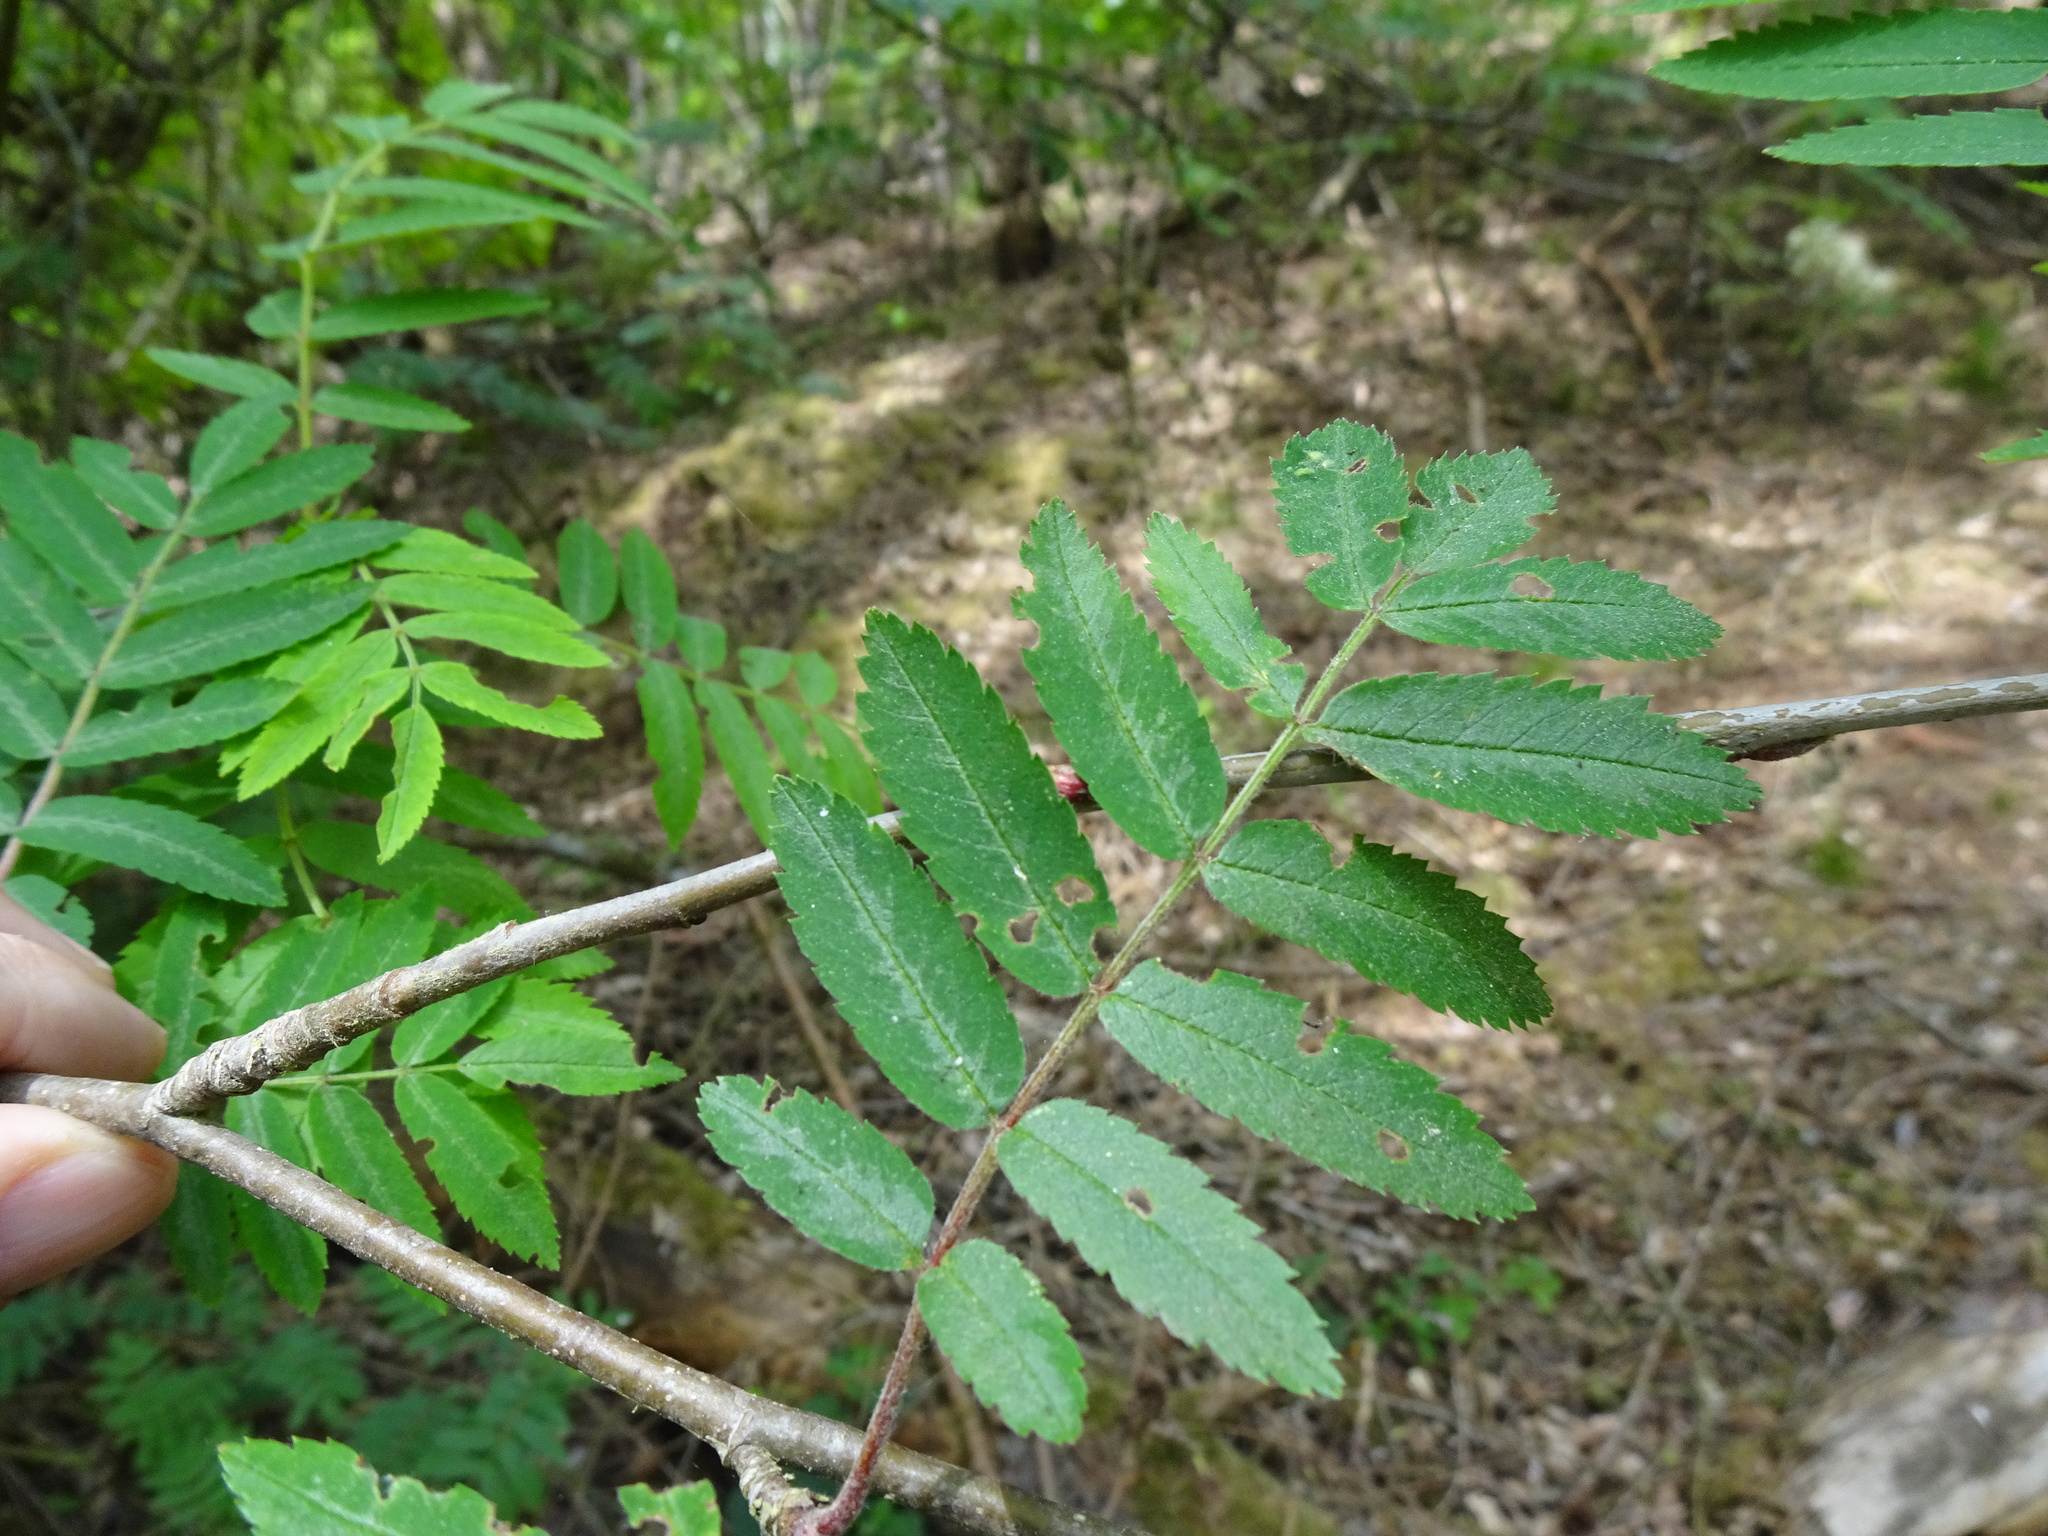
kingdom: Plantae
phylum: Tracheophyta
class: Magnoliopsida
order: Rosales
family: Rosaceae
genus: Sorbus
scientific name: Sorbus aucuparia
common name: Rowan
